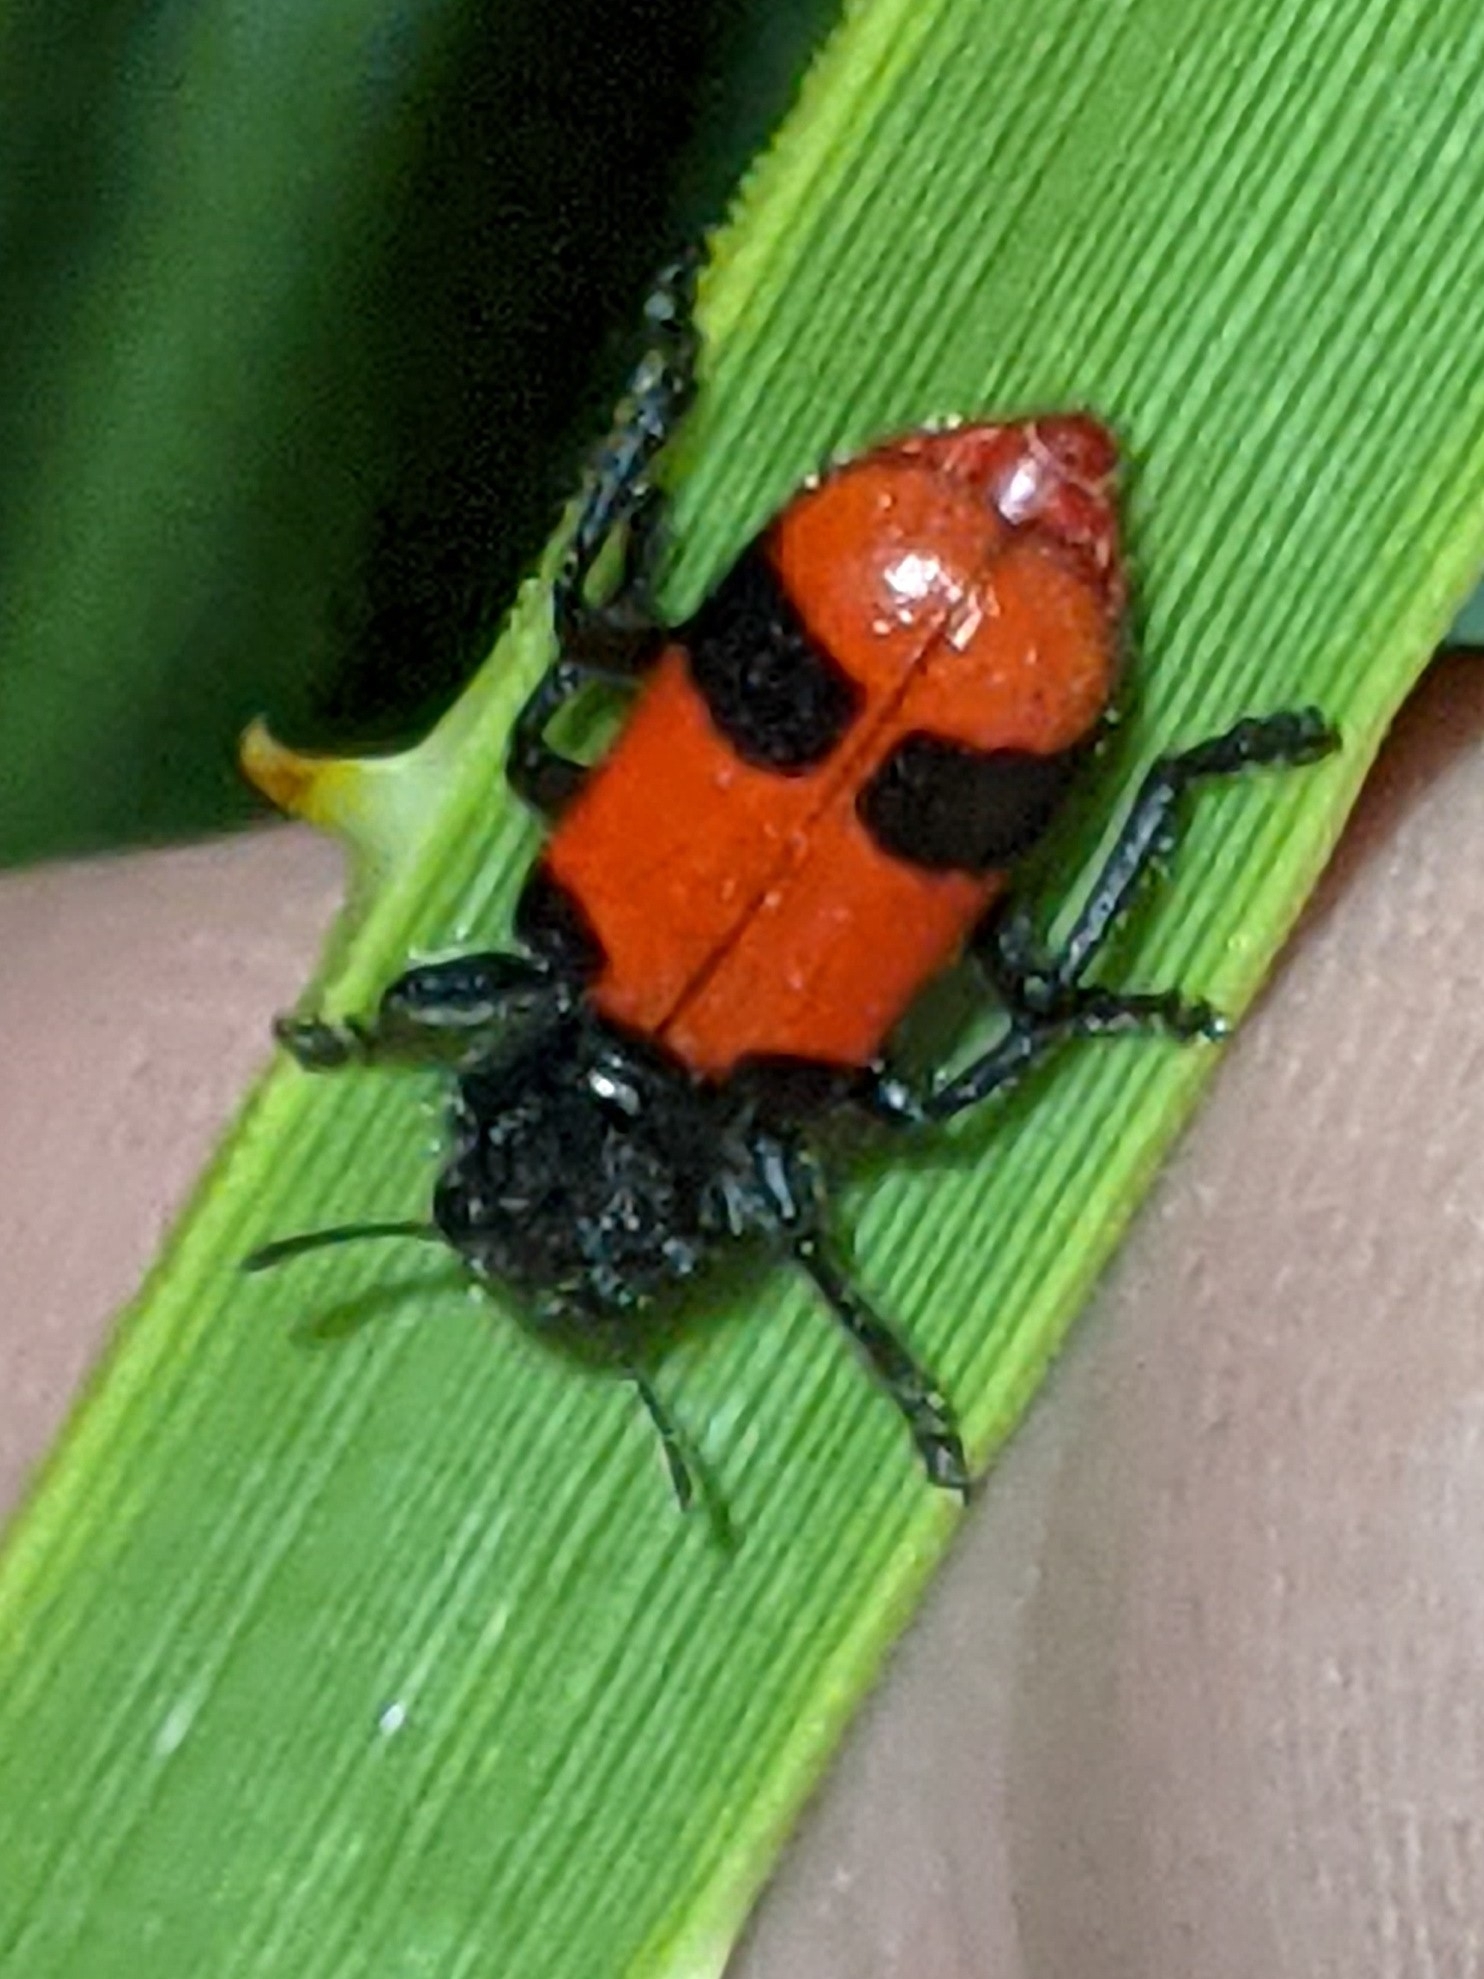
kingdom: Animalia
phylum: Arthropoda
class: Insecta
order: Coleoptera
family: Cleridae
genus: Enoclerus
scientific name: Enoclerus
